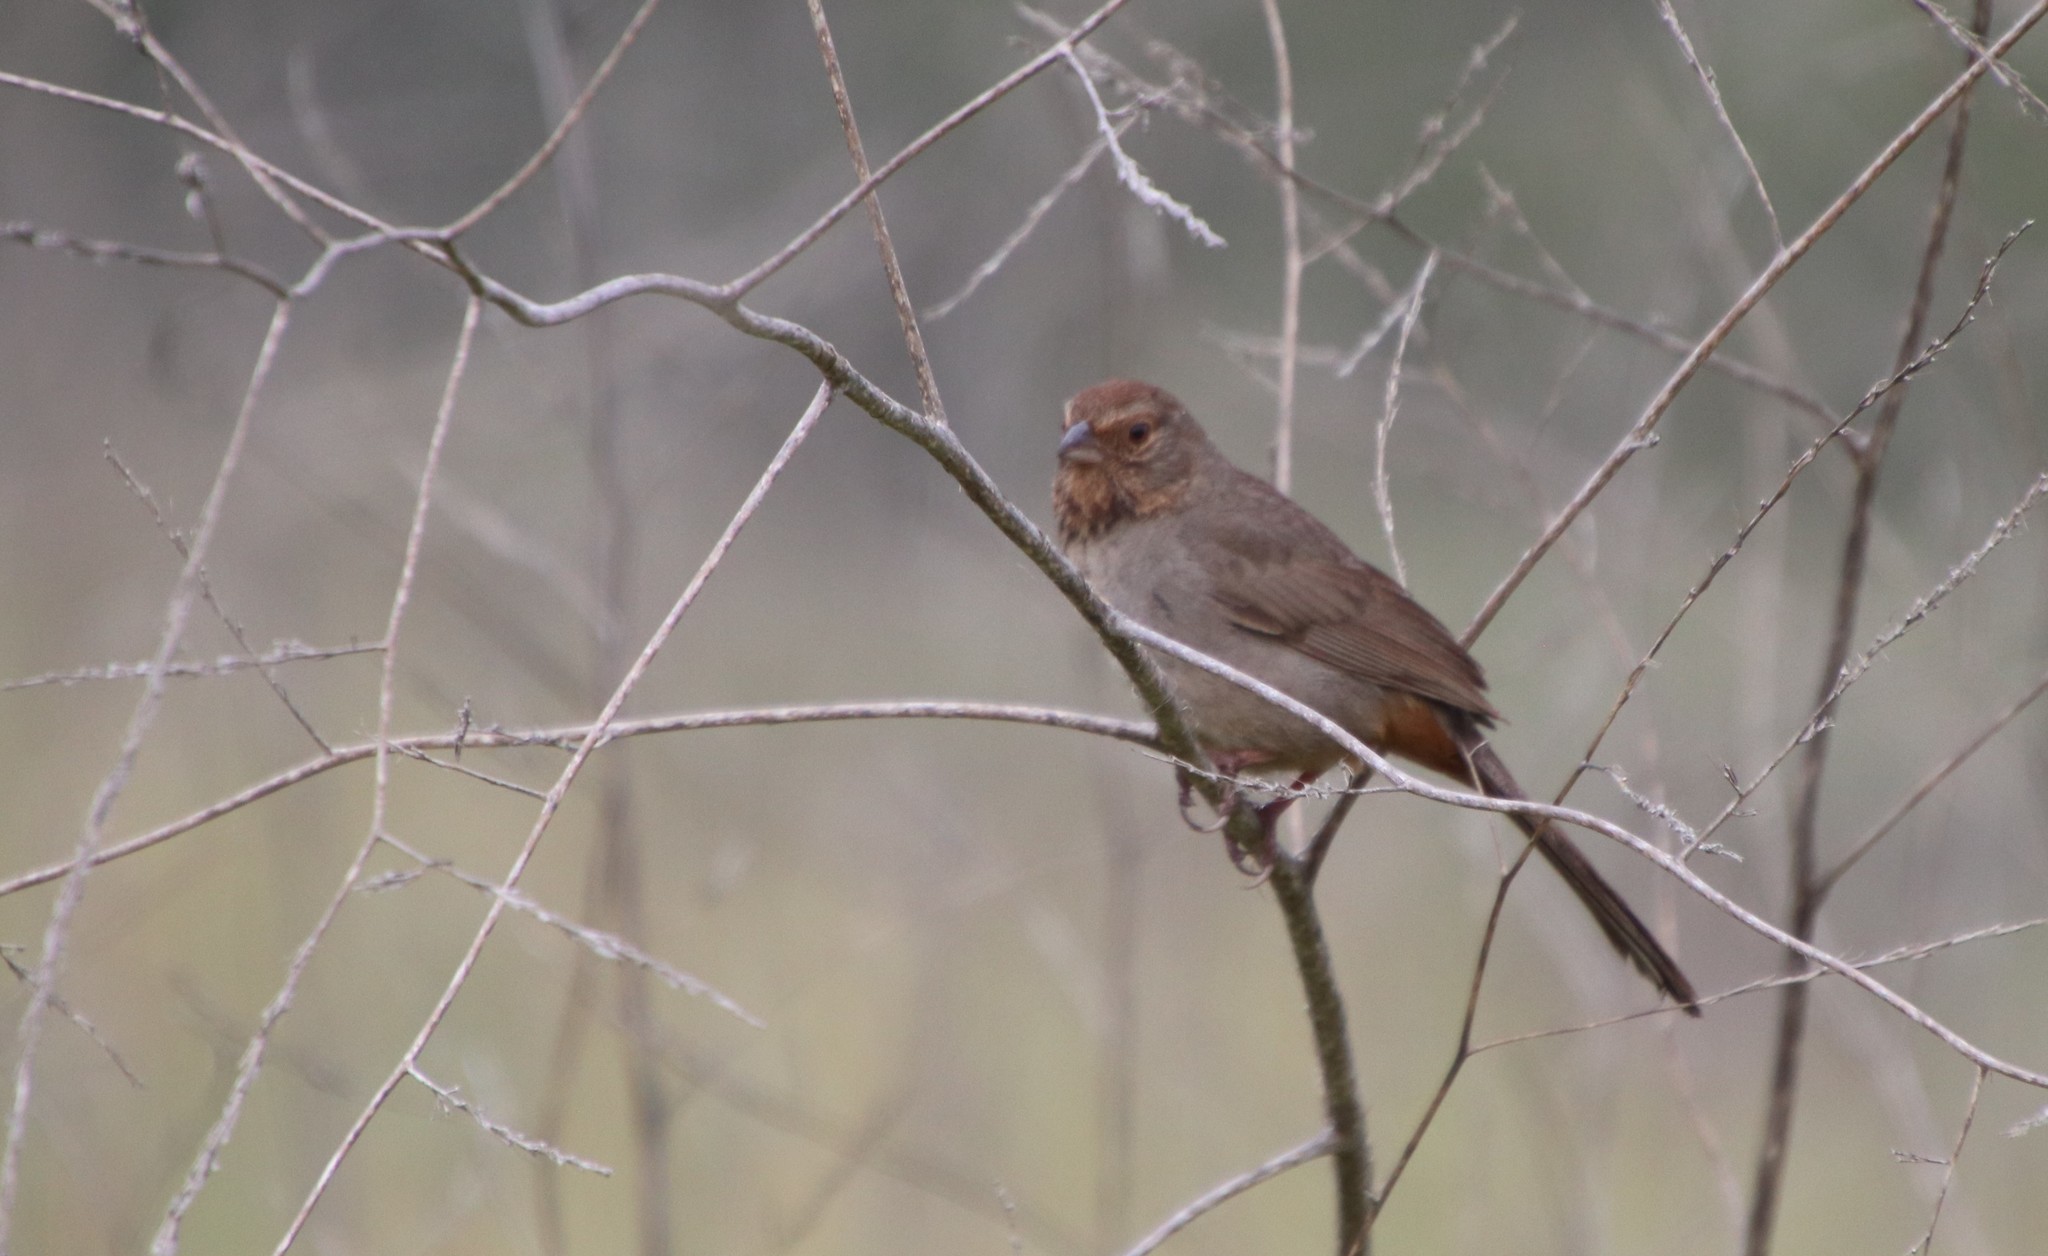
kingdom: Animalia
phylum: Chordata
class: Aves
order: Passeriformes
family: Passerellidae
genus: Melozone
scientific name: Melozone crissalis
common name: California towhee
